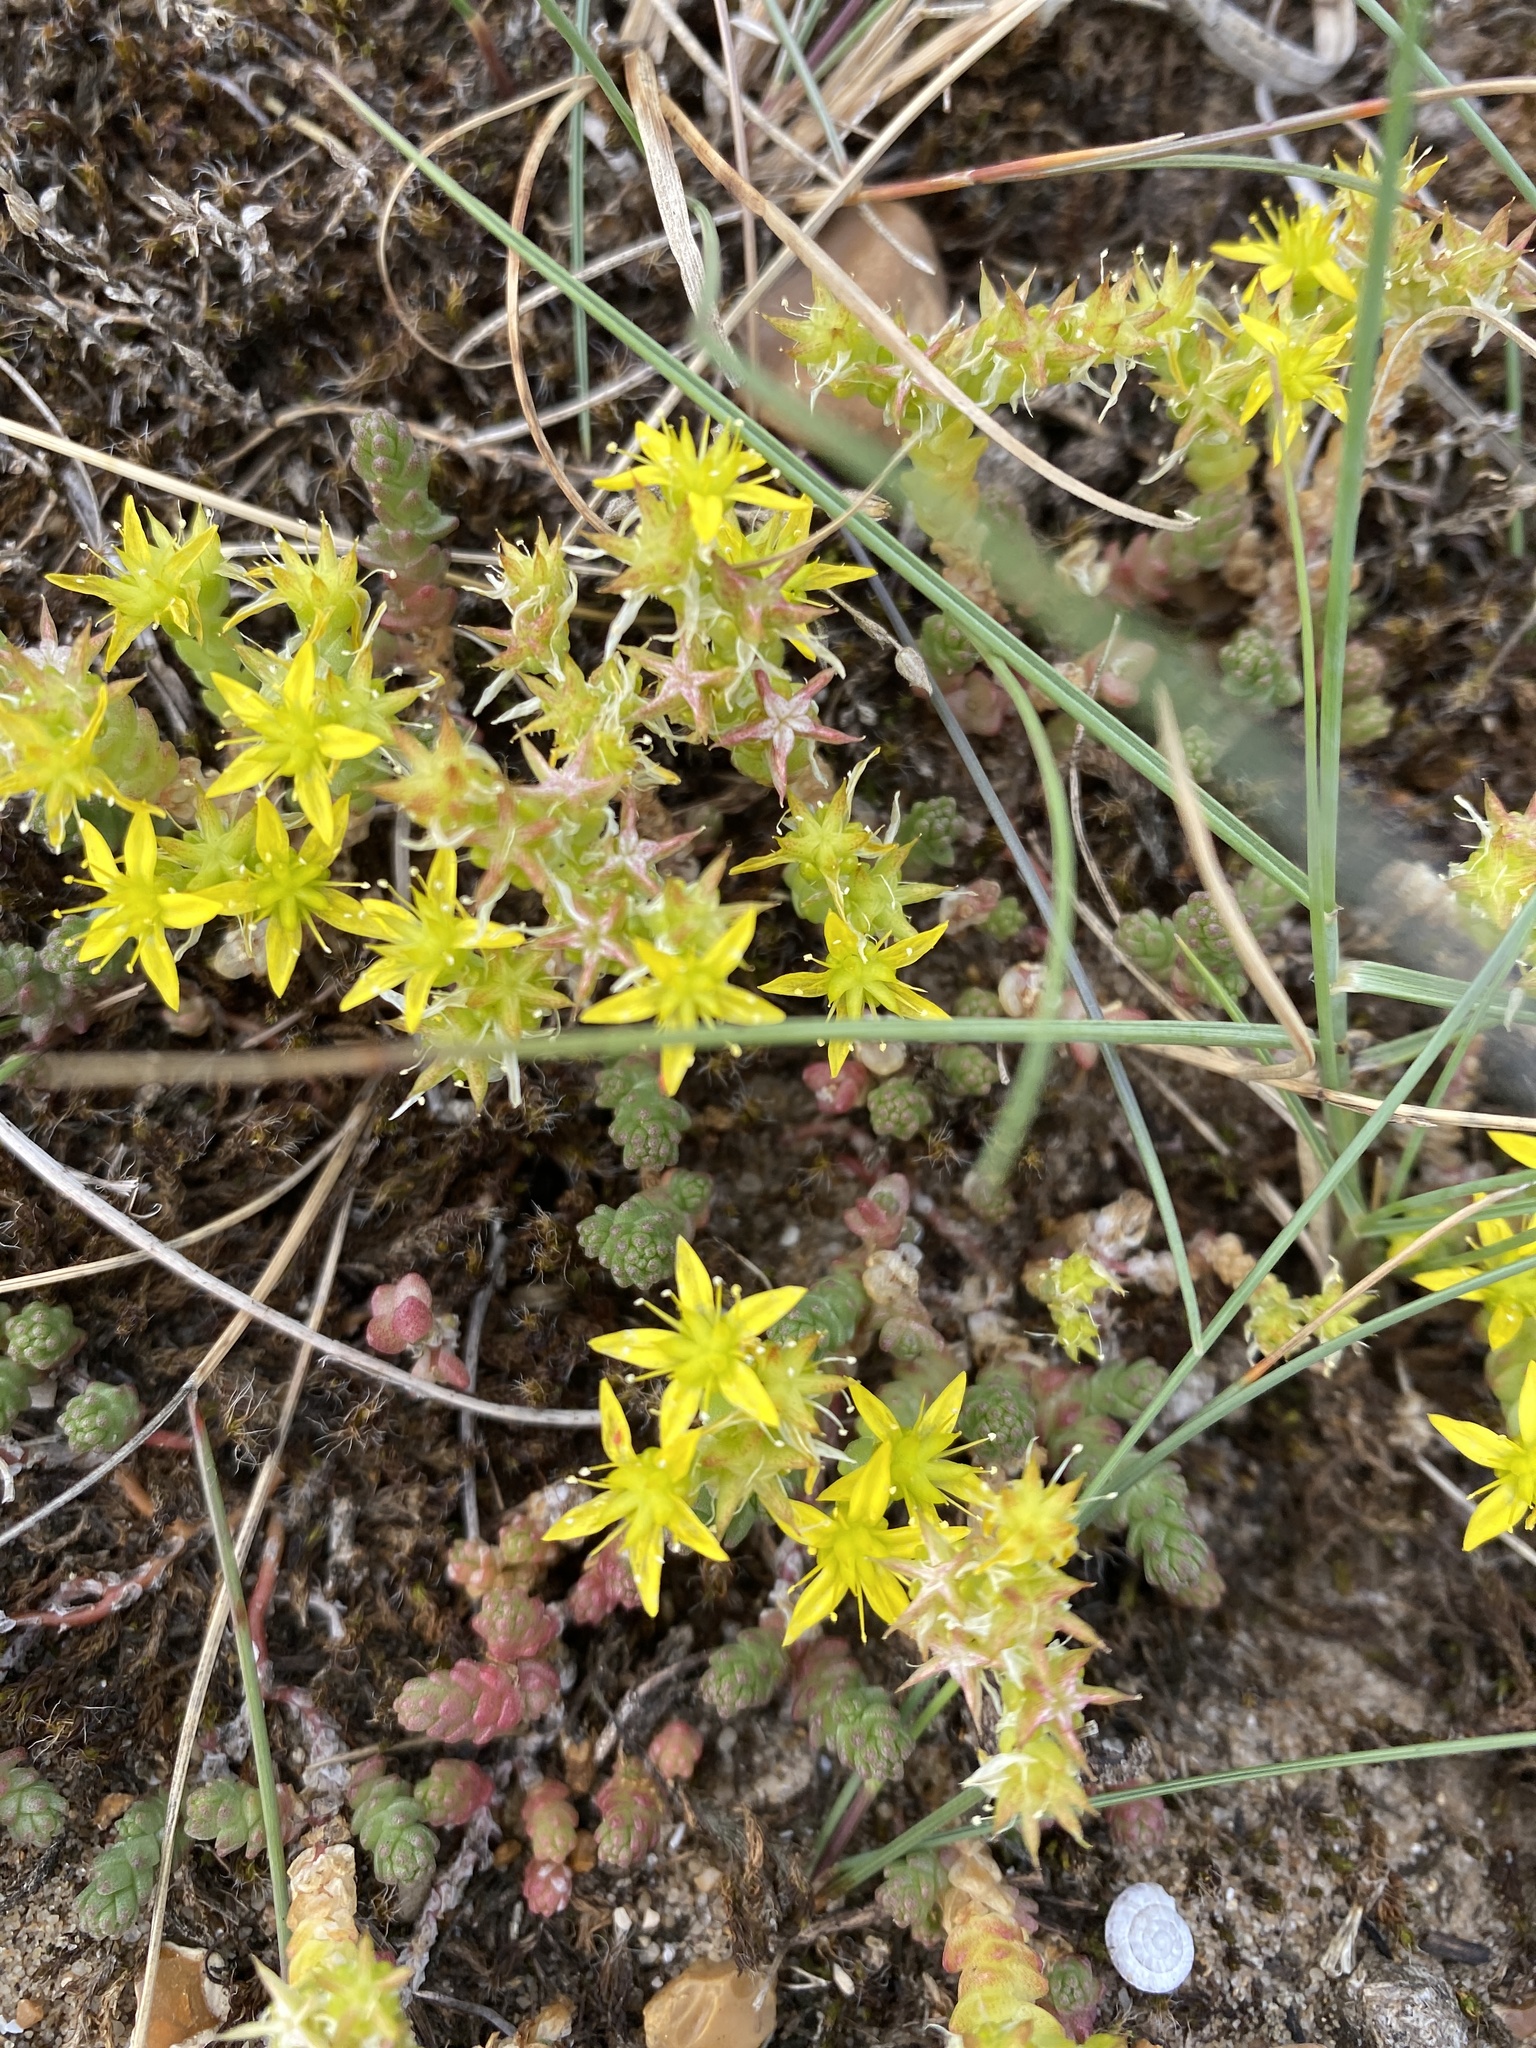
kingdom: Plantae
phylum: Tracheophyta
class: Magnoliopsida
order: Saxifragales
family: Crassulaceae
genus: Sedum
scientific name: Sedum acre
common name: Biting stonecrop
